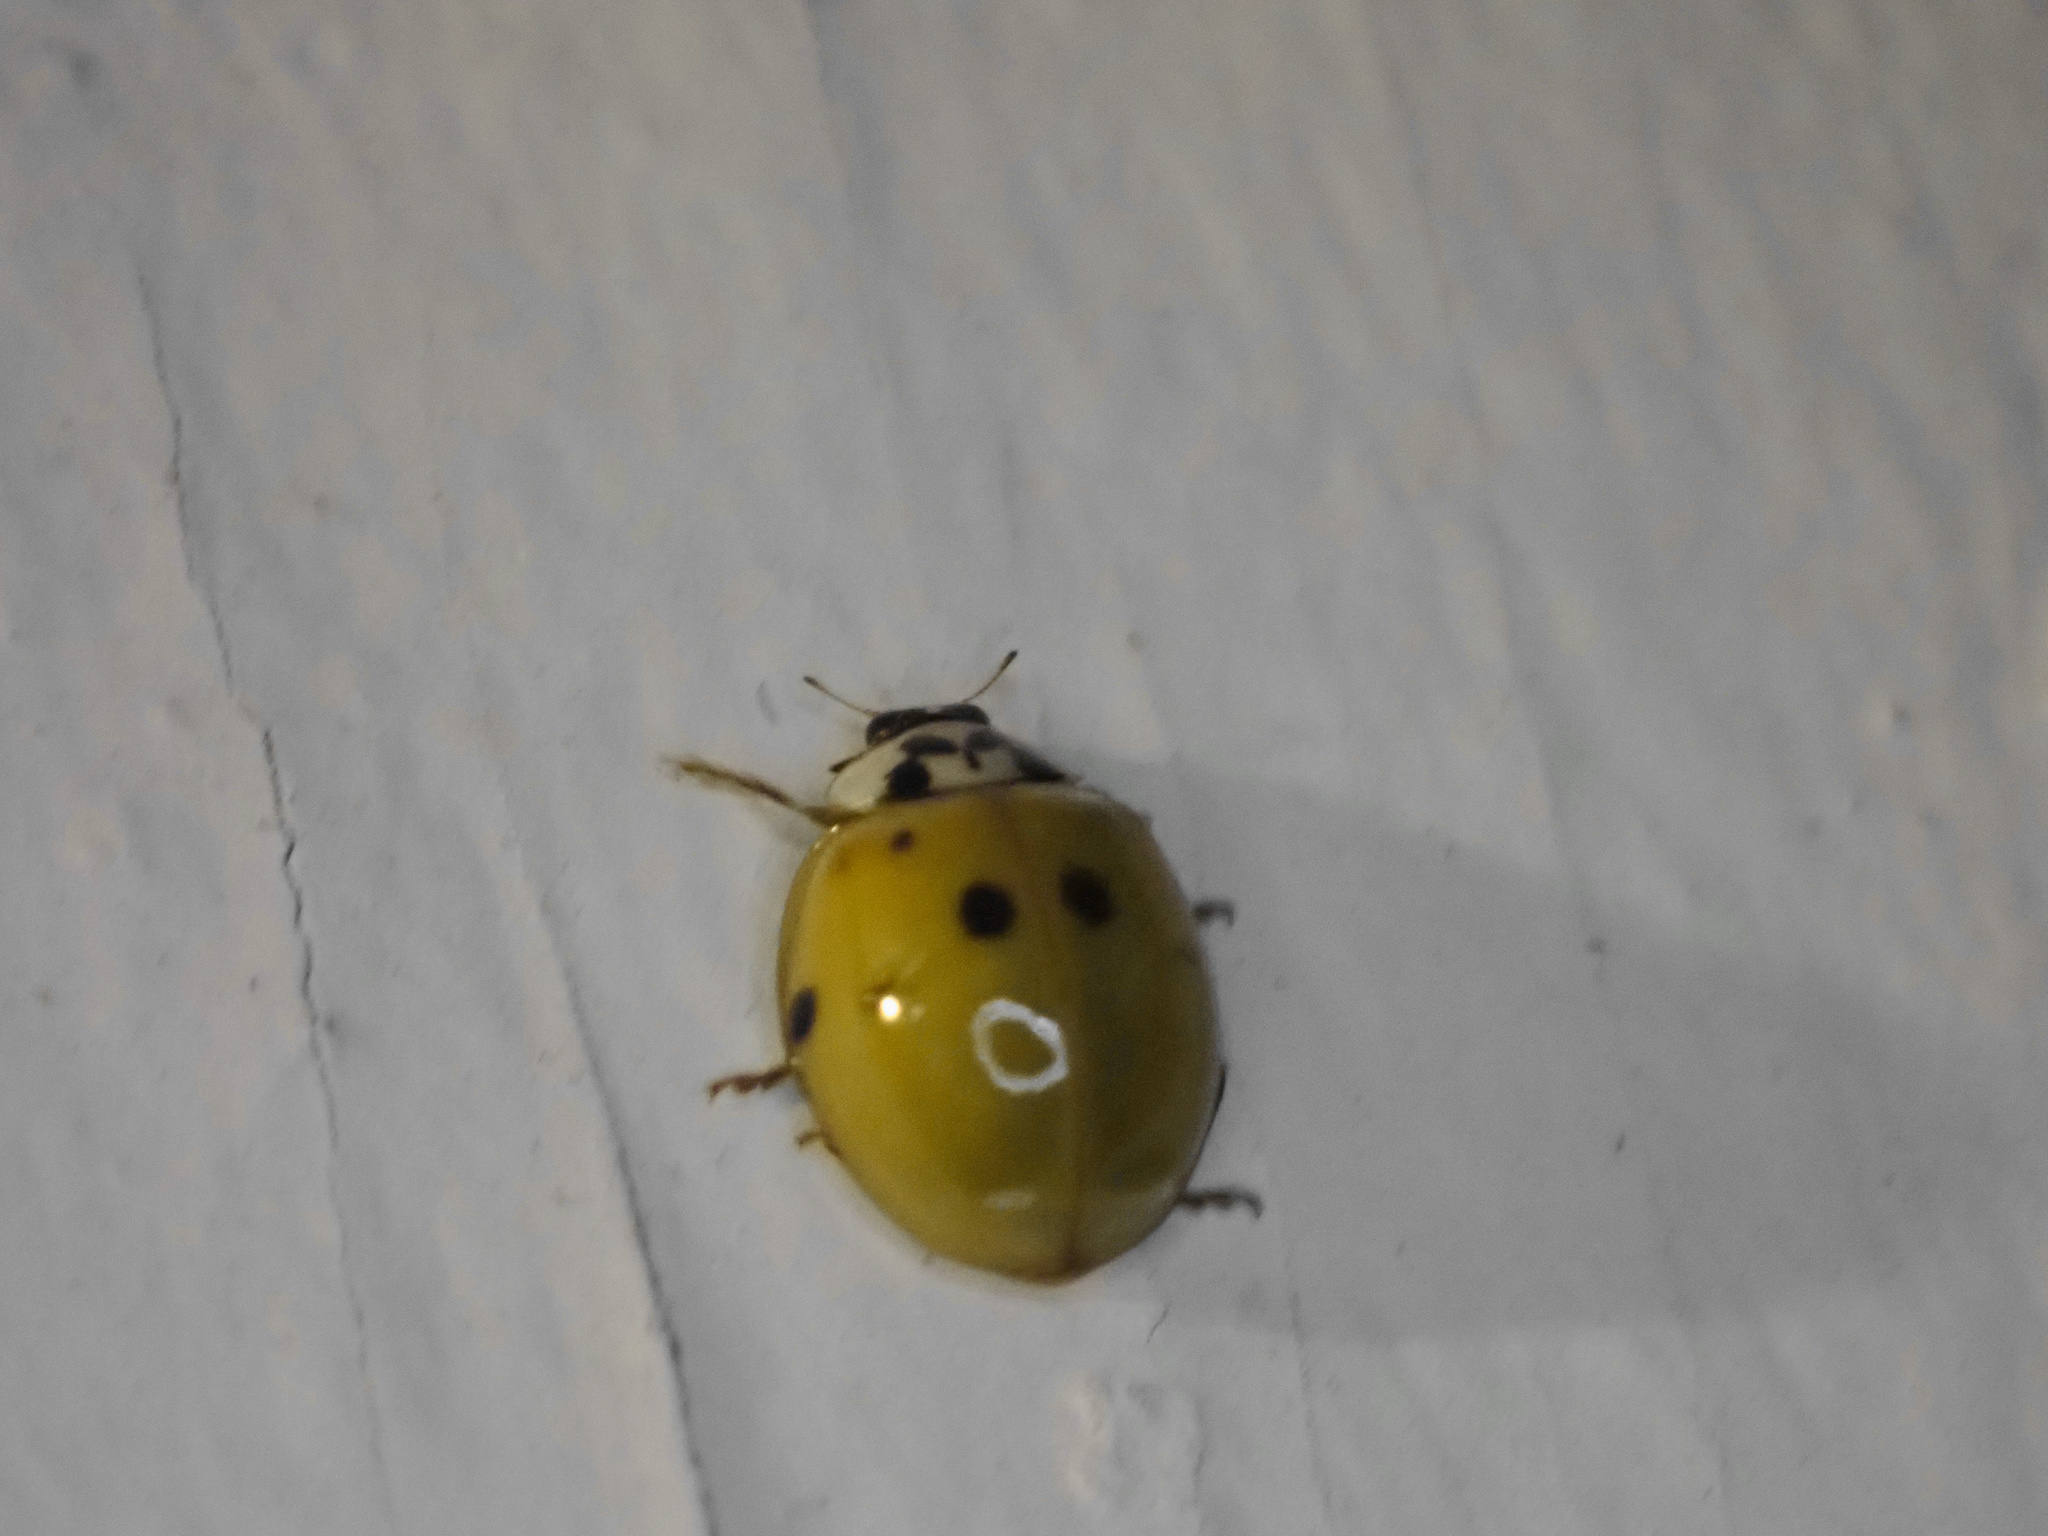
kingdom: Animalia
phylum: Arthropoda
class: Insecta
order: Coleoptera
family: Coccinellidae
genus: Harmonia
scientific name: Harmonia axyridis
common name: Harlequin ladybird
